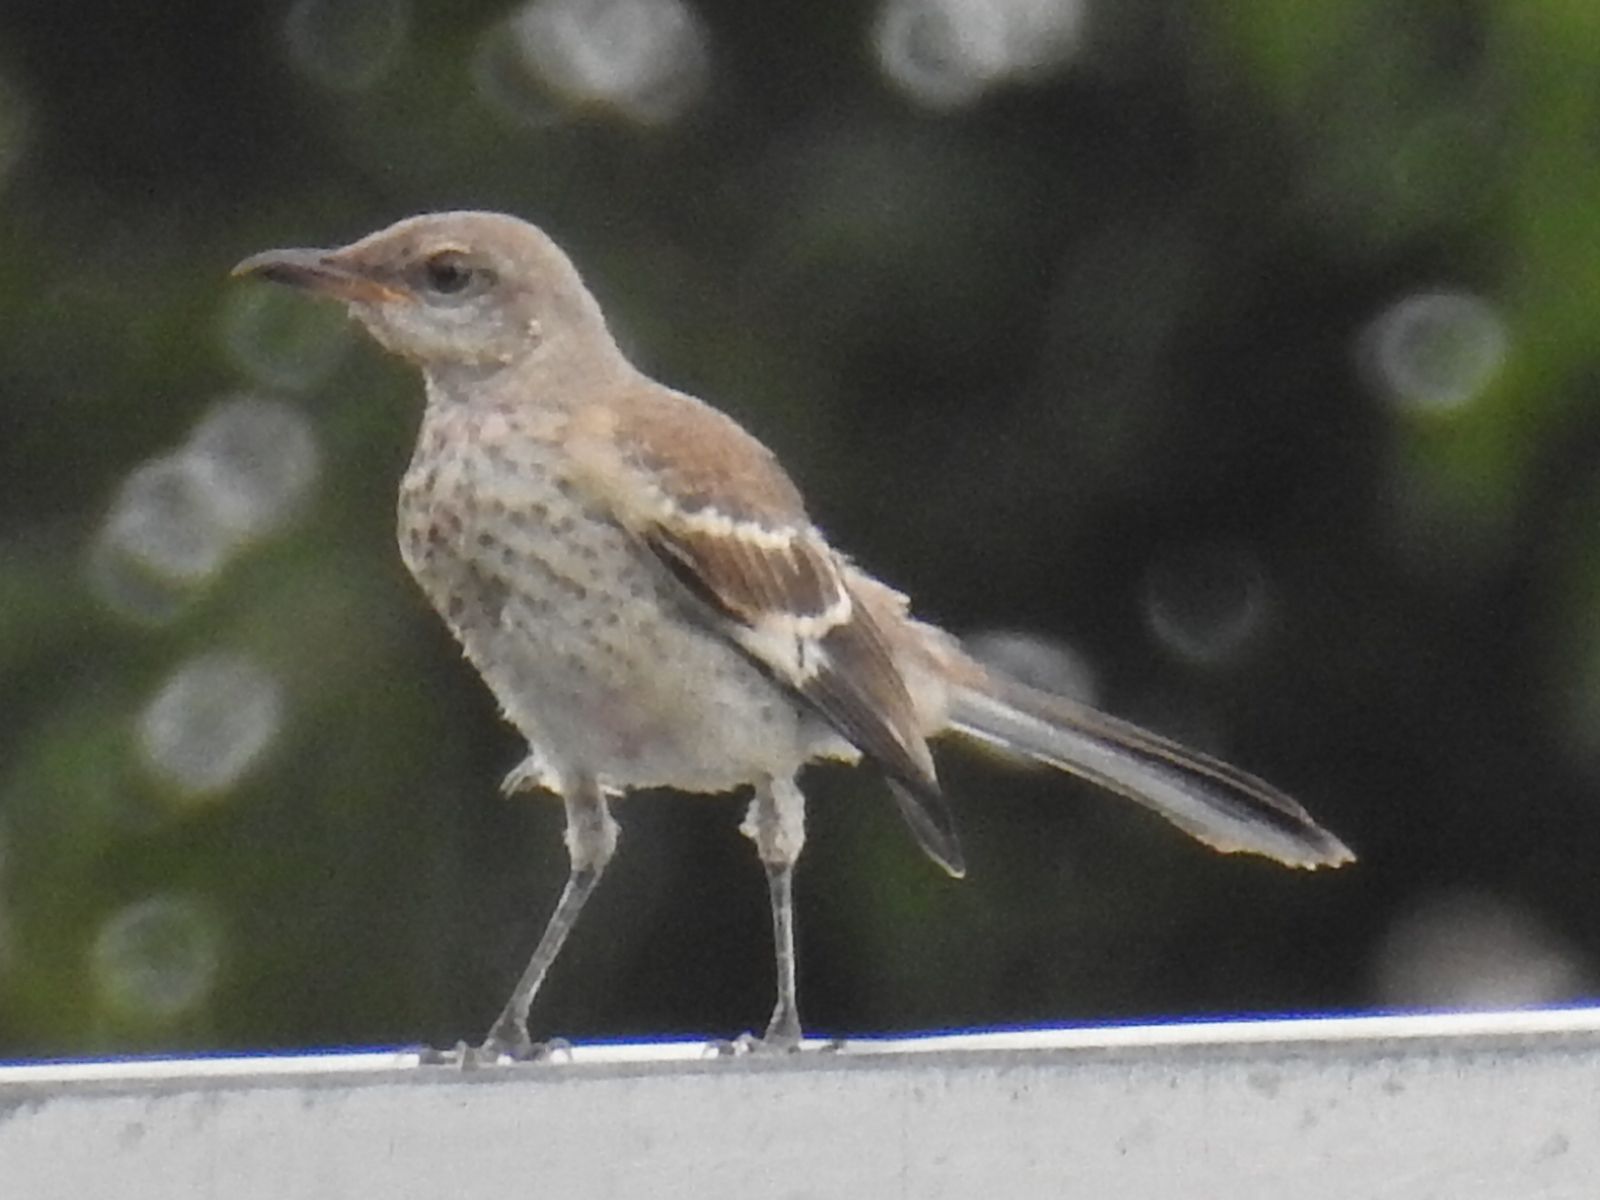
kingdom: Animalia
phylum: Chordata
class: Aves
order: Passeriformes
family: Mimidae
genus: Mimus
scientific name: Mimus polyglottos
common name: Northern mockingbird
